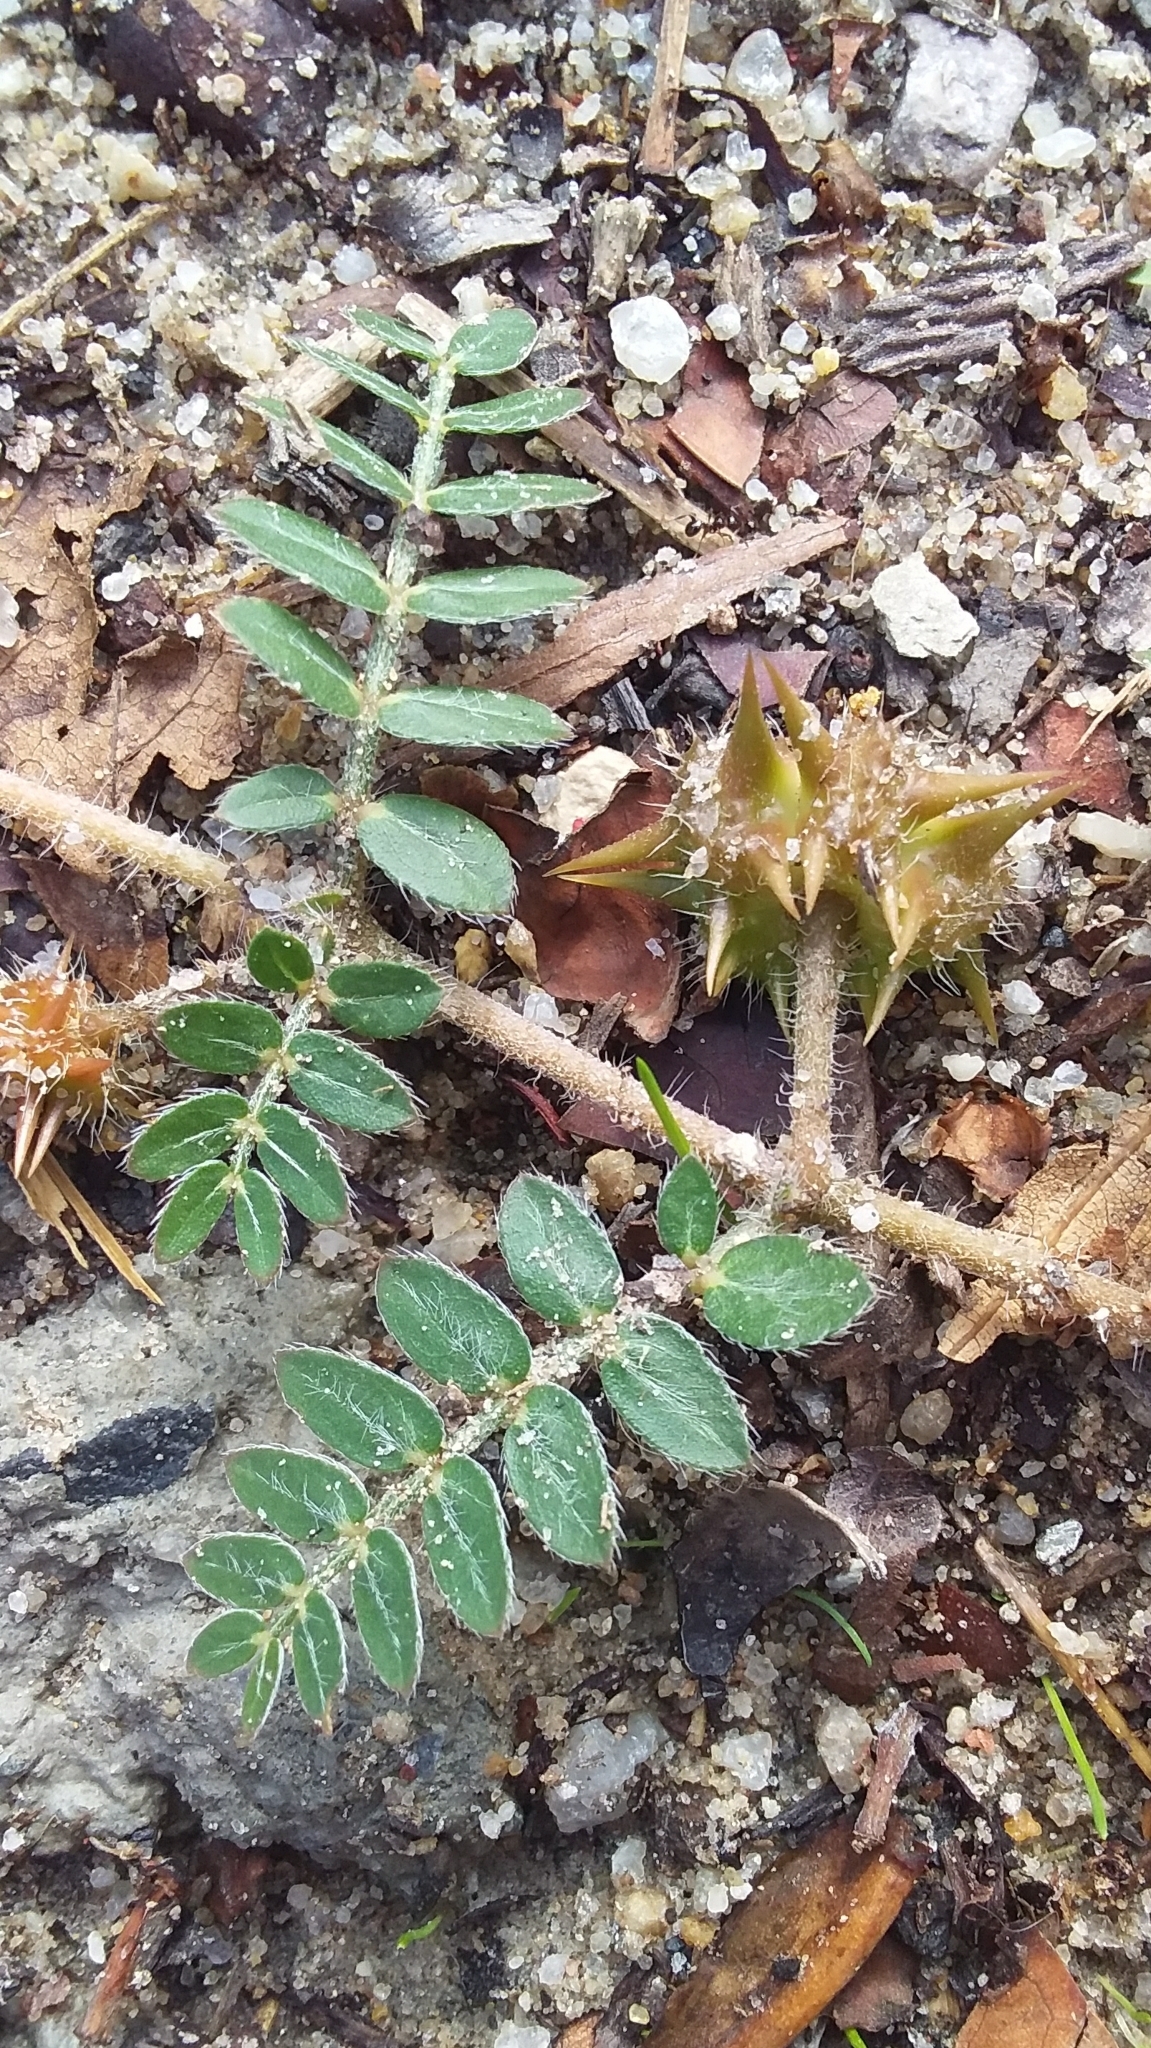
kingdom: Plantae
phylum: Tracheophyta
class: Magnoliopsida
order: Zygophyllales
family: Zygophyllaceae
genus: Tribulus
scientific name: Tribulus terrestris
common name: Puncturevine
